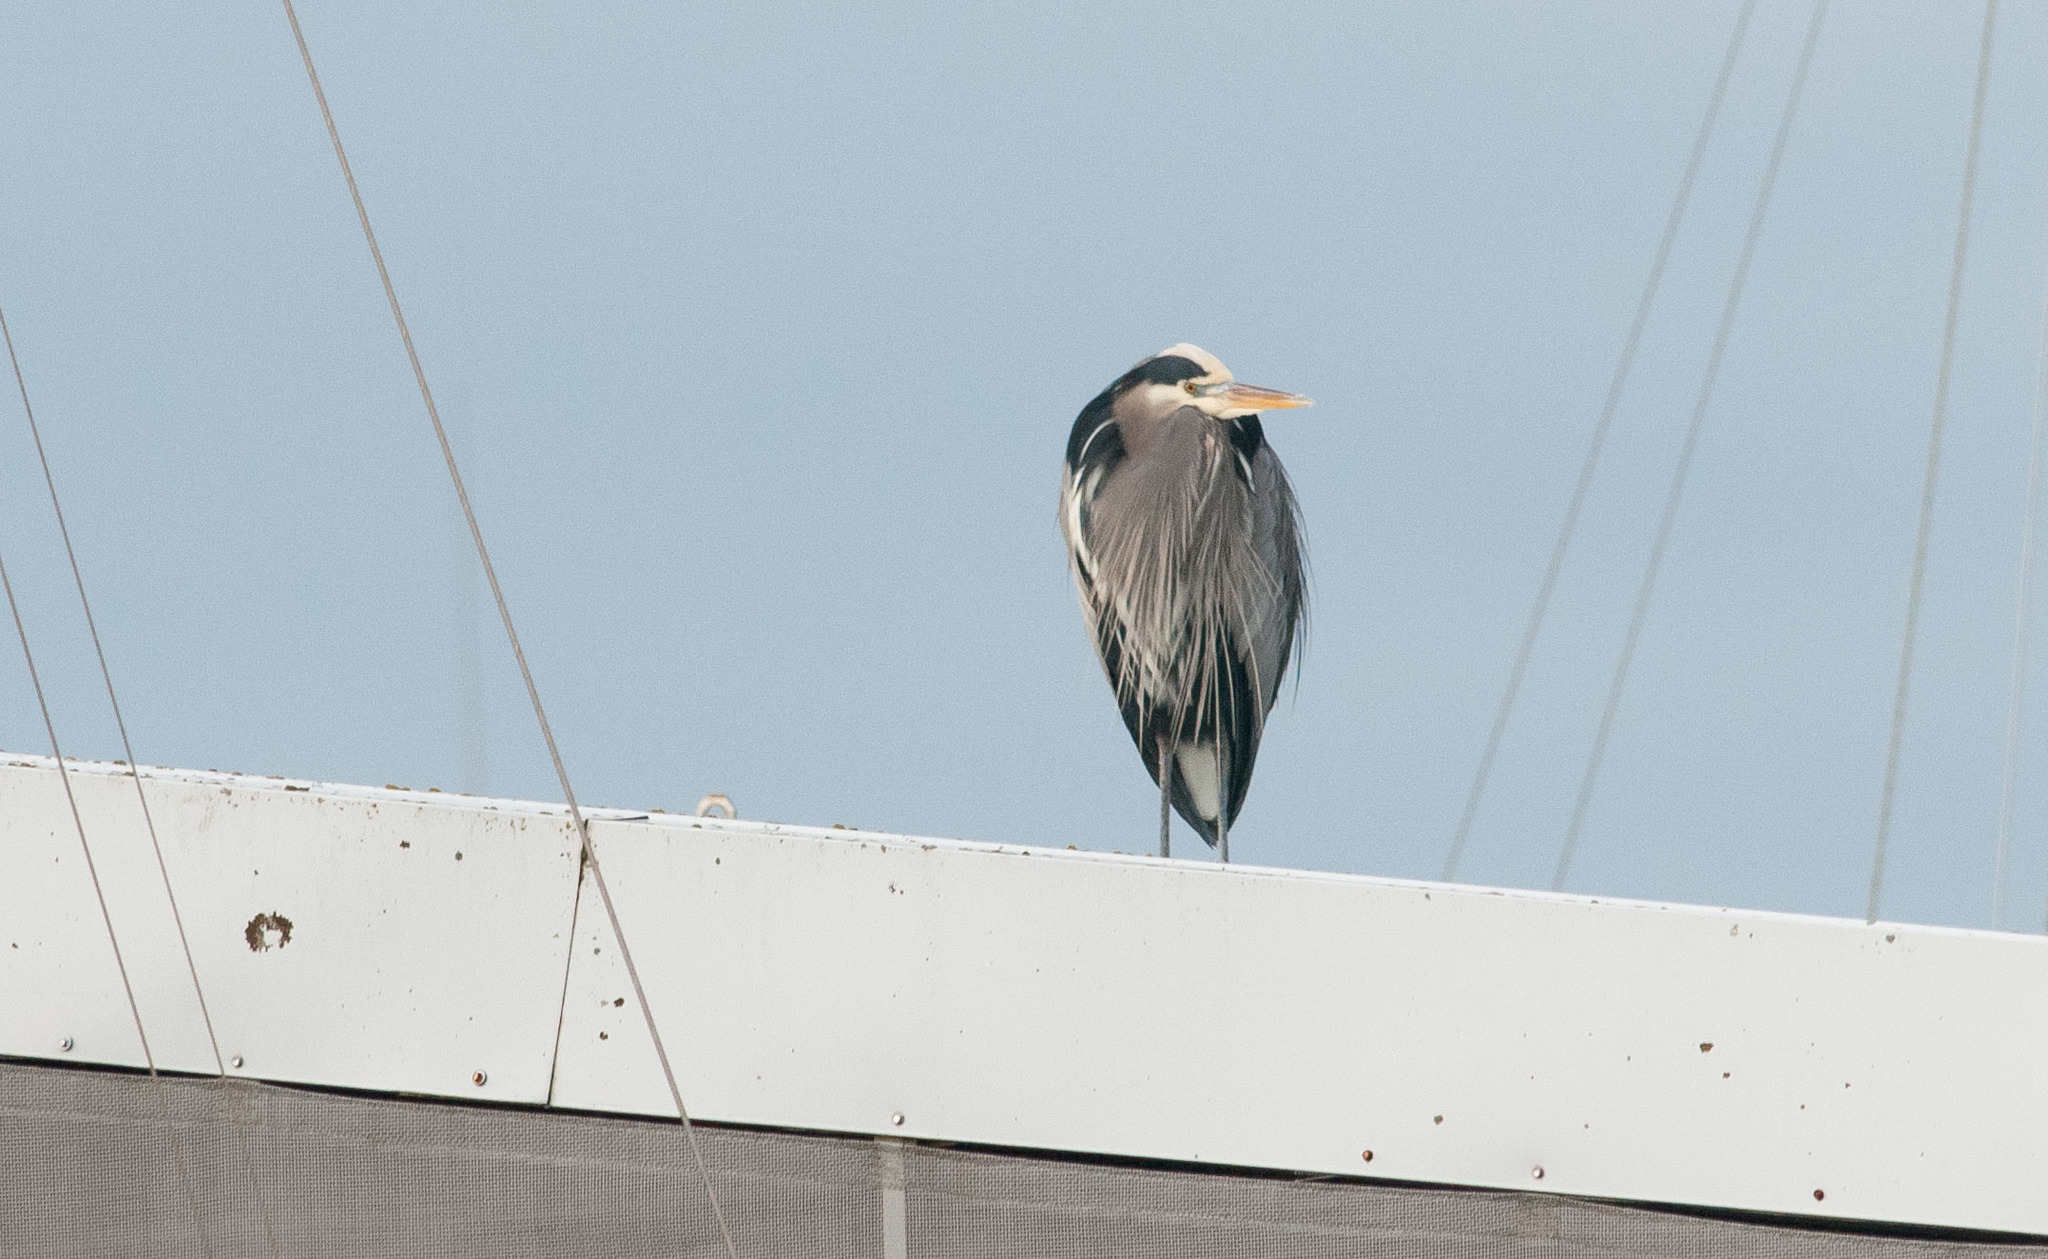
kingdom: Animalia
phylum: Chordata
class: Aves
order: Pelecaniformes
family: Ardeidae
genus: Ardea
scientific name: Ardea herodias
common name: Great blue heron
